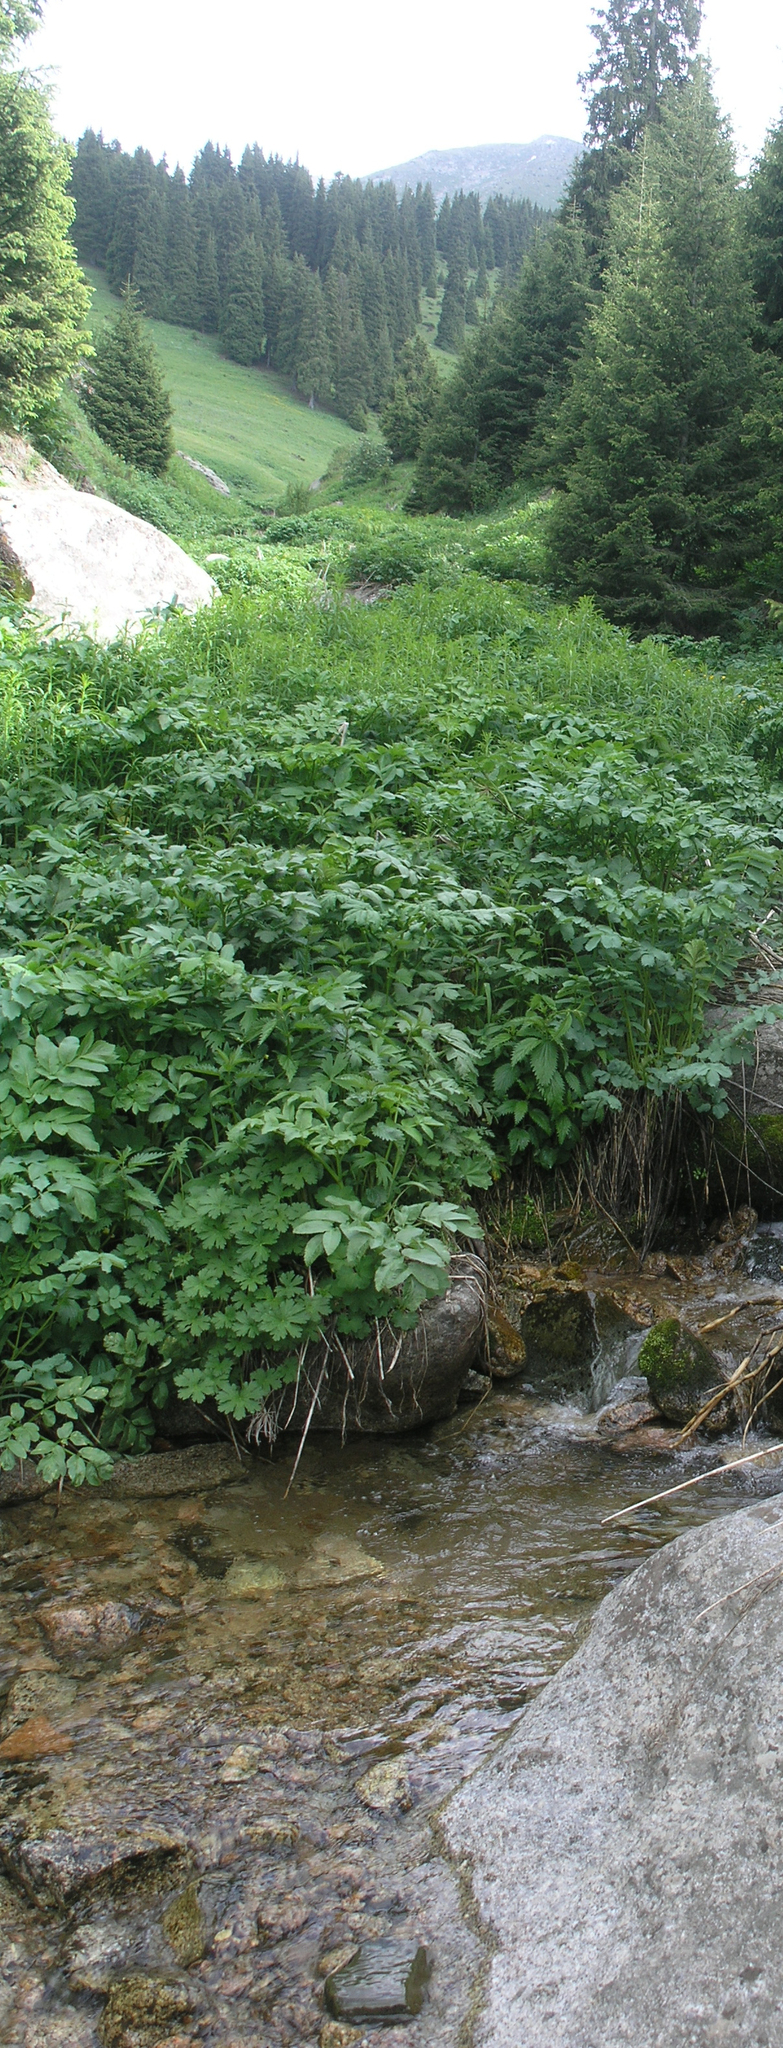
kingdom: Plantae
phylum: Tracheophyta
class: Magnoliopsida
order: Apiales
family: Apiaceae
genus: Angelica
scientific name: Angelica decurrens
